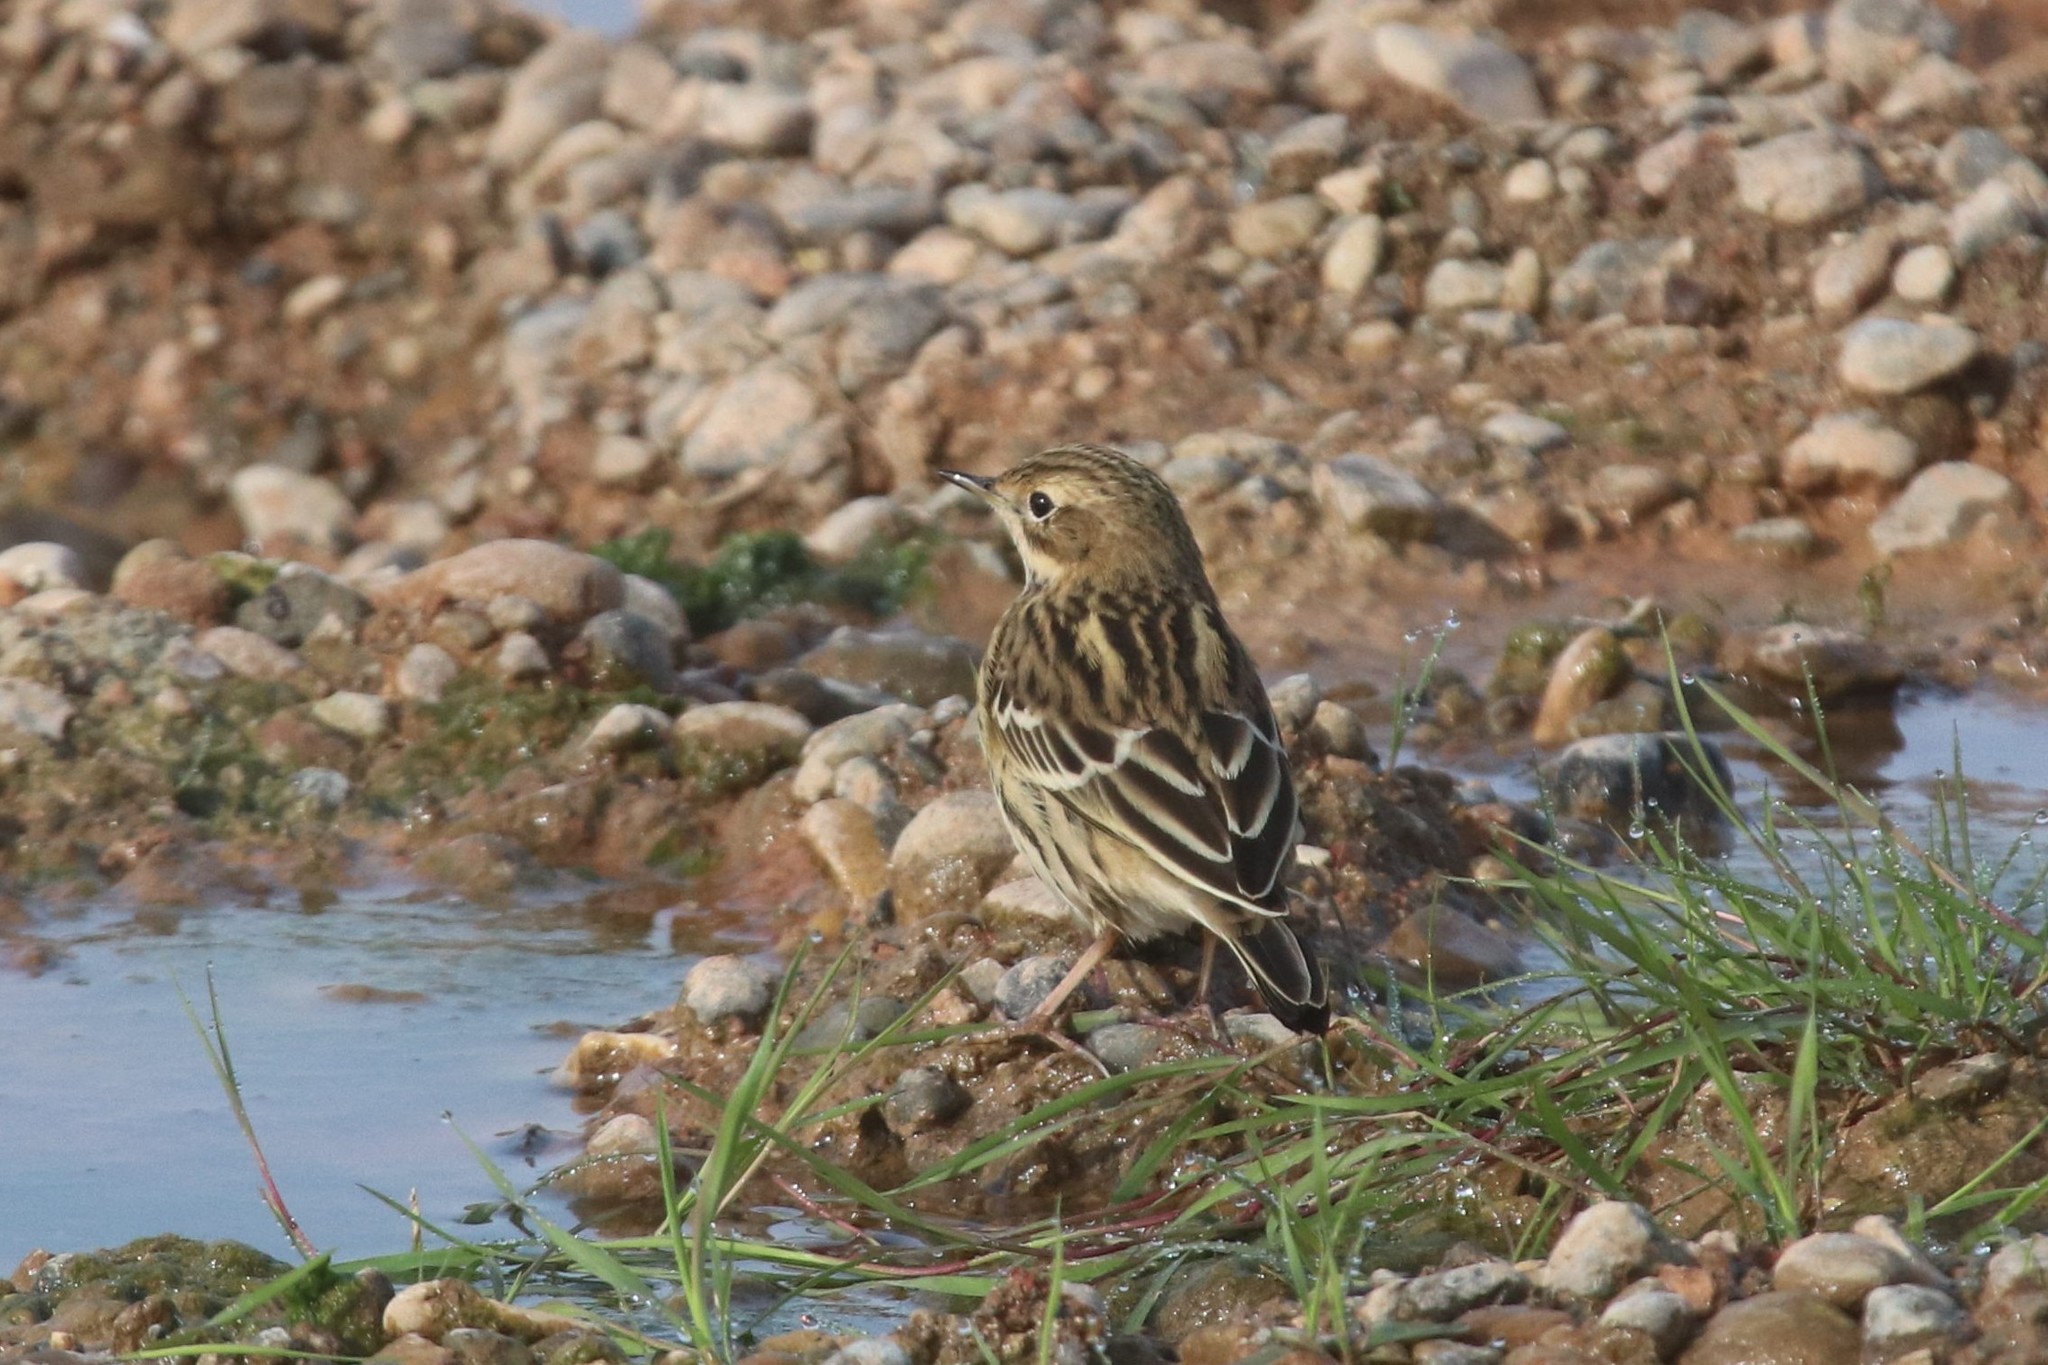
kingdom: Animalia
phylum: Chordata
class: Aves
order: Passeriformes
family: Motacillidae
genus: Anthus
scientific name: Anthus cervinus
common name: Red-throated pipit
